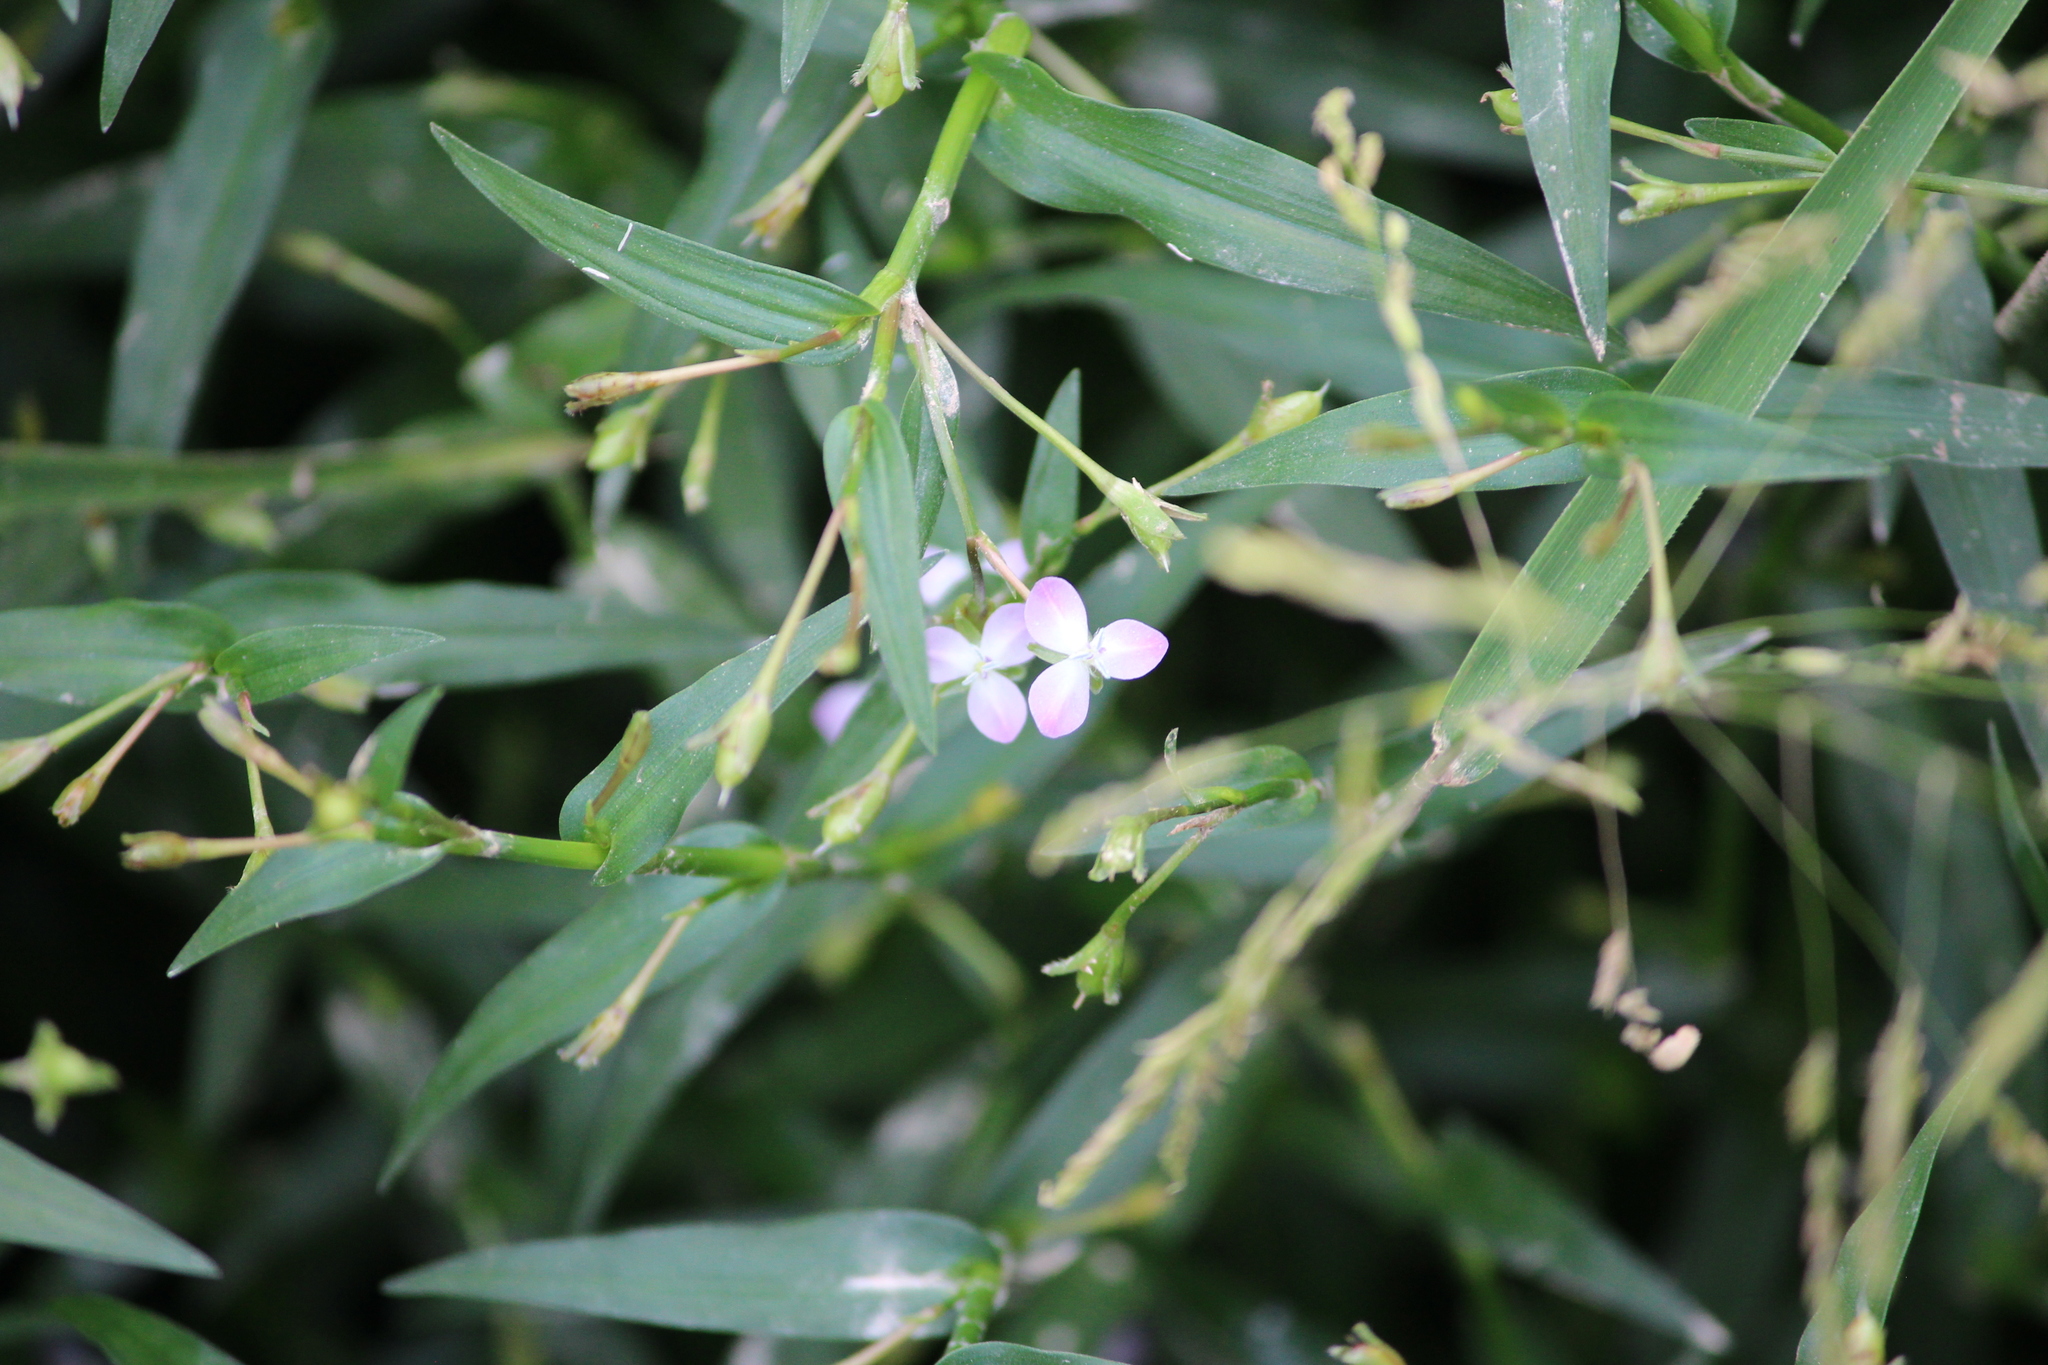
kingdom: Plantae
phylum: Tracheophyta
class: Liliopsida
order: Commelinales
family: Commelinaceae
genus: Murdannia
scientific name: Murdannia keisak
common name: Wartremoving herb
